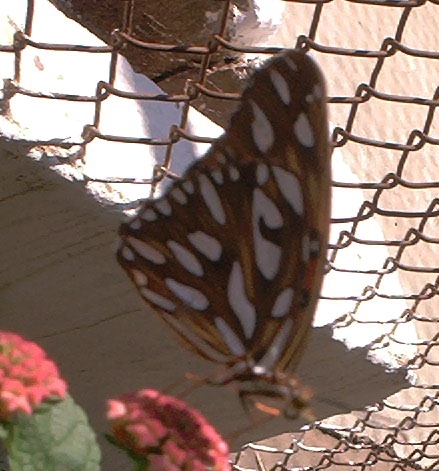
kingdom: Animalia
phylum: Arthropoda
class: Insecta
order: Lepidoptera
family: Nymphalidae
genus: Dione
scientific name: Dione vanillae
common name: Gulf fritillary
